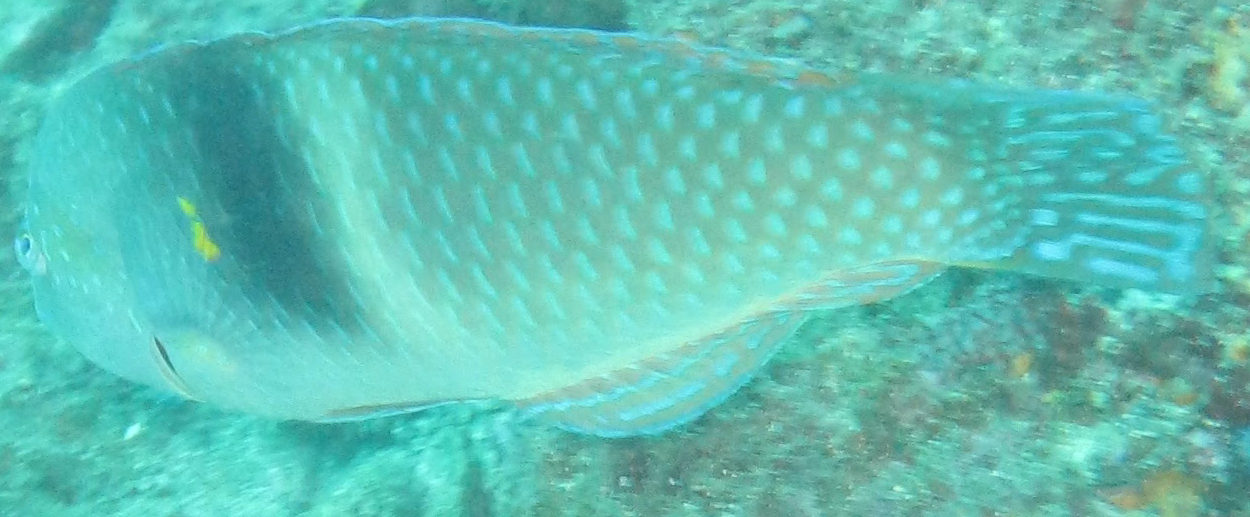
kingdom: Animalia
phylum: Chordata
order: Perciformes
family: Labridae
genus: Halichoeres
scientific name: Halichoeres nicholsi
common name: Spinster wrasse
